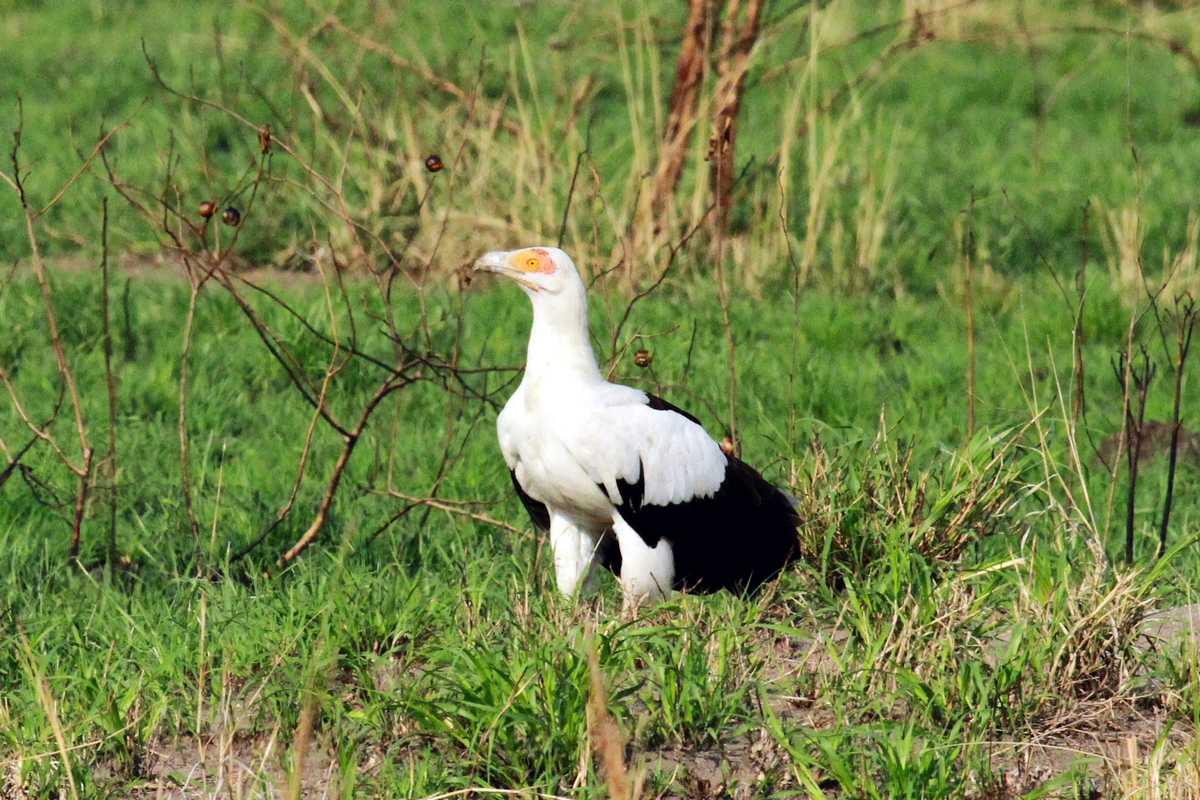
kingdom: Animalia
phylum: Chordata
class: Aves
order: Accipitriformes
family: Accipitridae
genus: Gypohierax
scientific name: Gypohierax angolensis
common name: Palm-nut vulture
